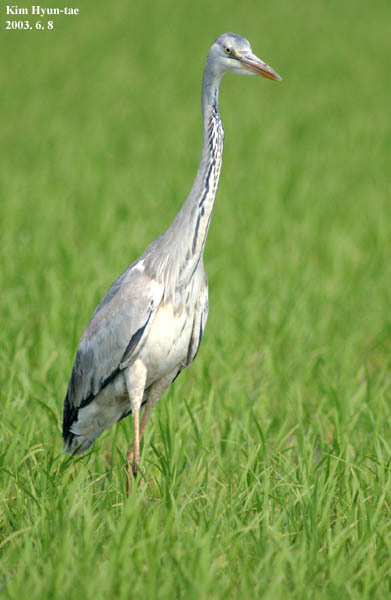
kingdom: Animalia
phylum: Chordata
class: Aves
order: Pelecaniformes
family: Ardeidae
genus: Ardea
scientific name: Ardea cinerea
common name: Grey heron
